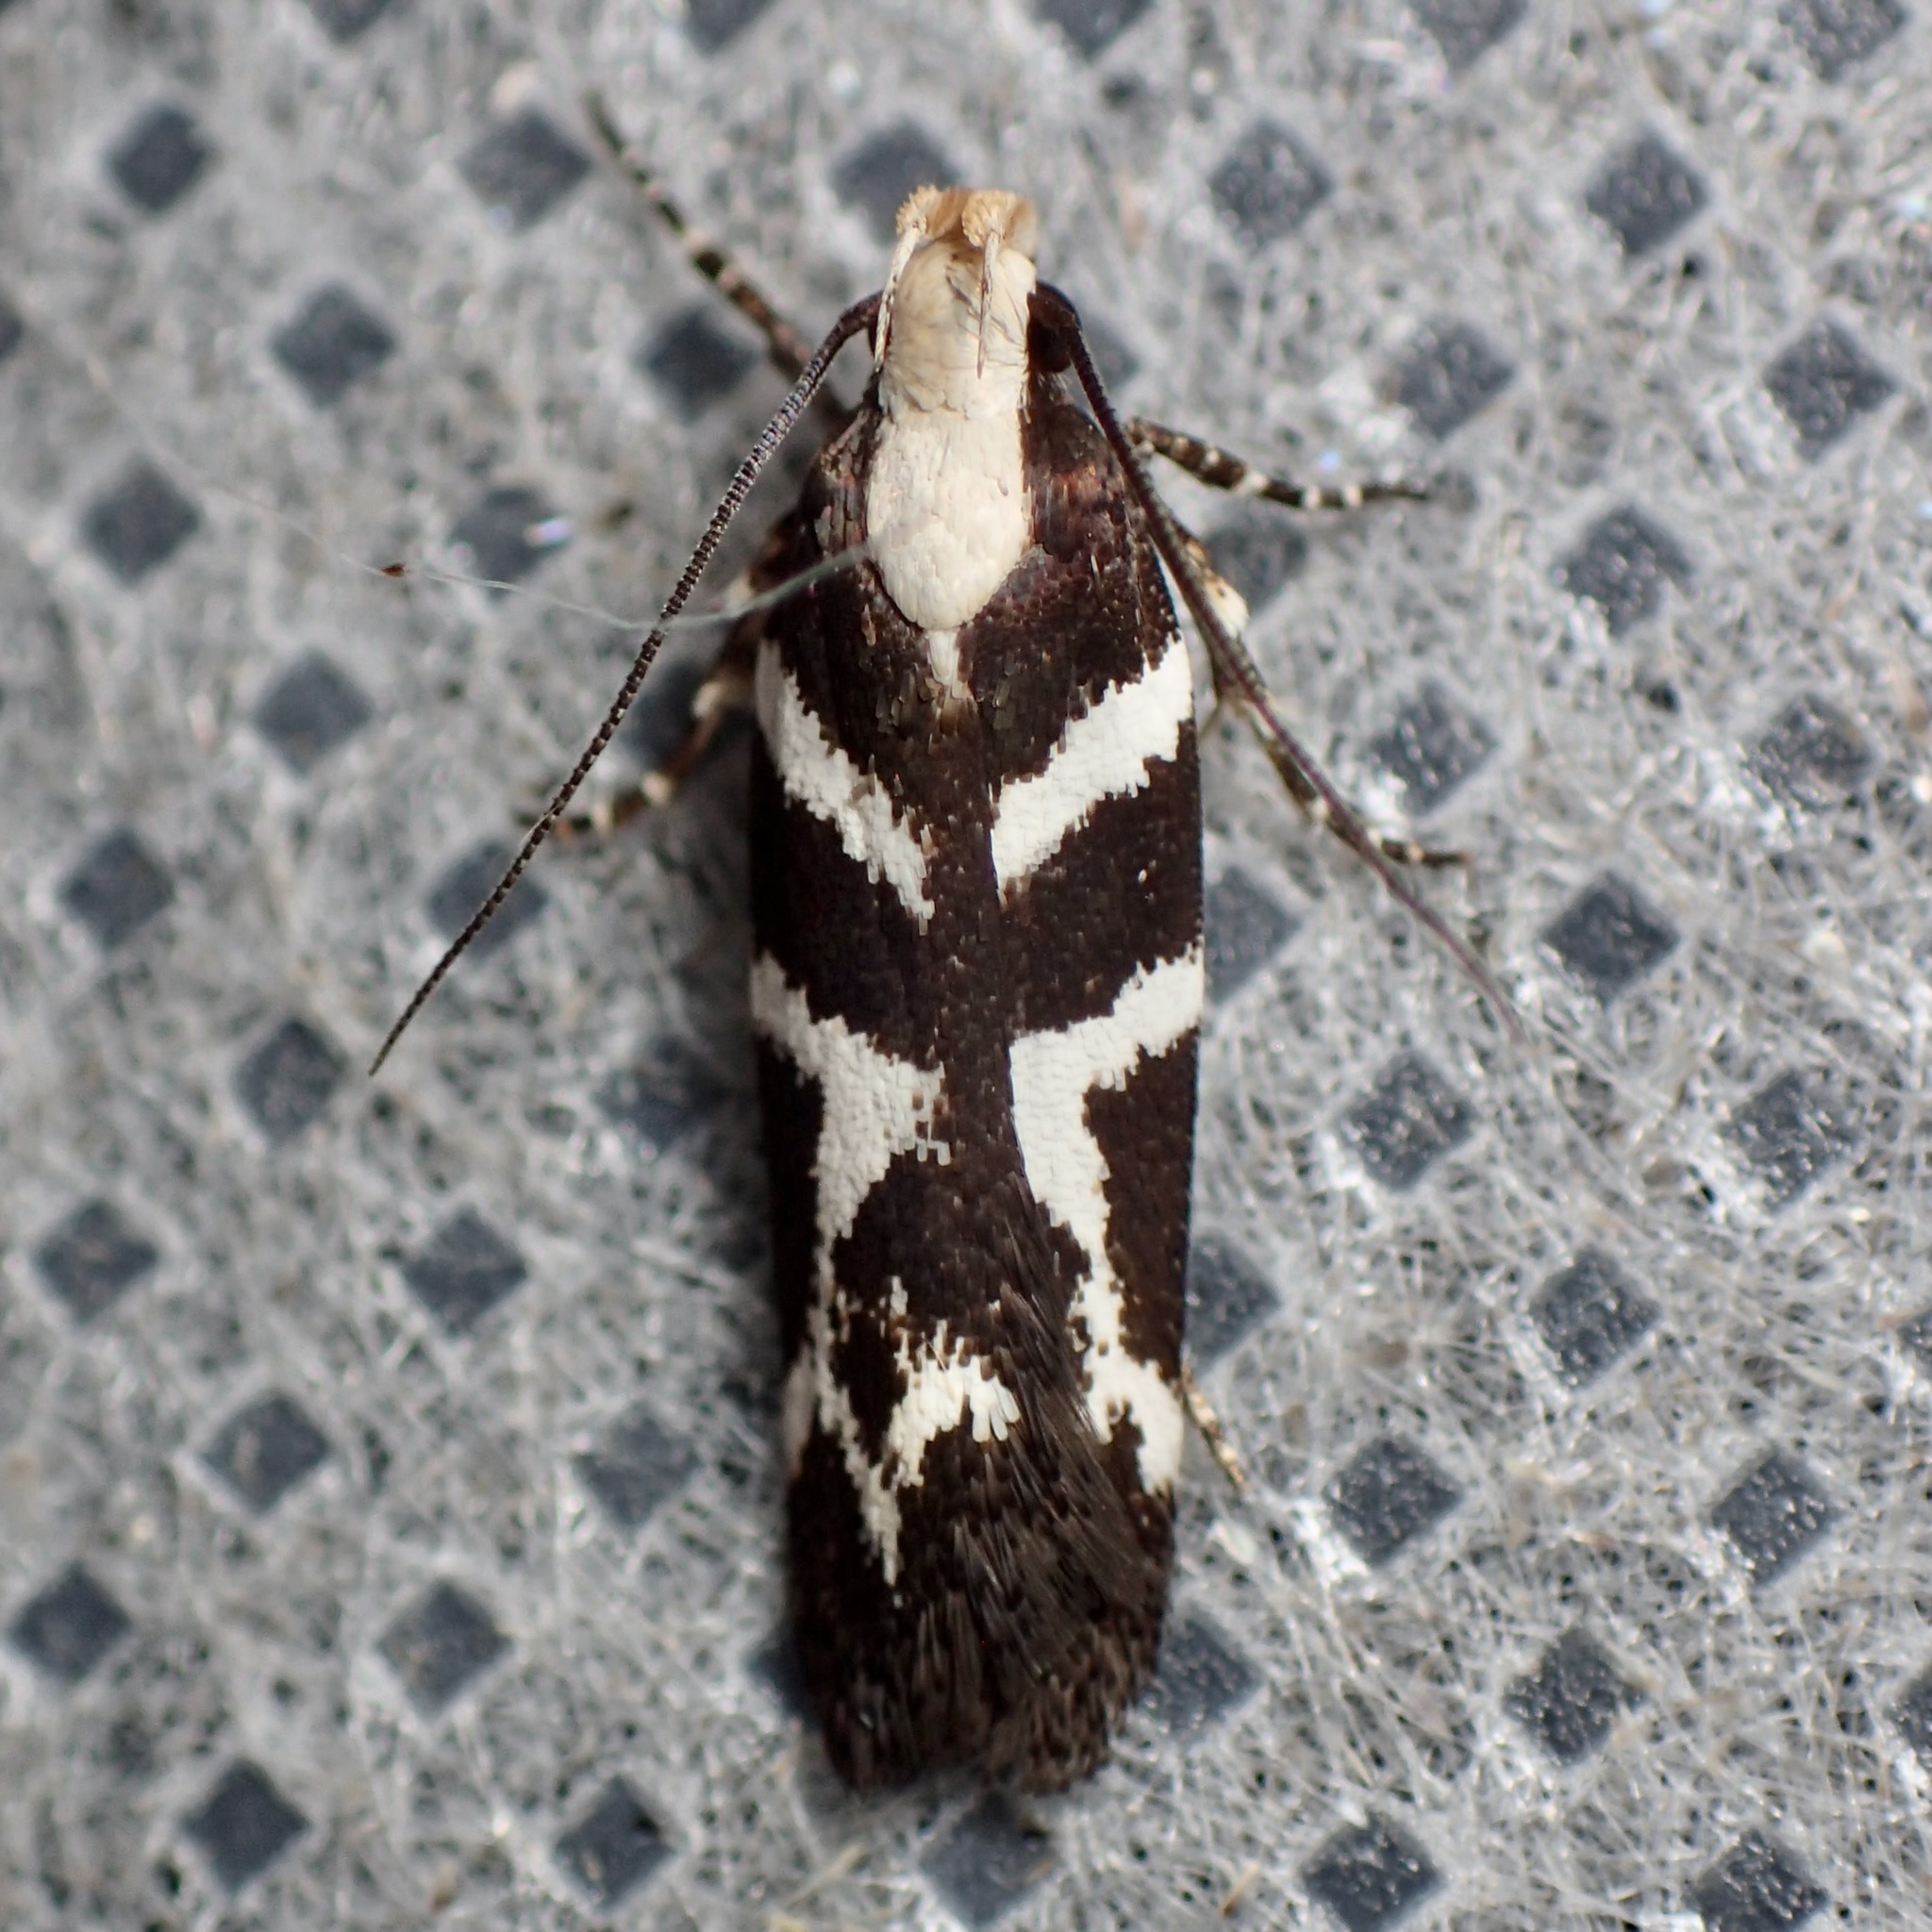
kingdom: Animalia
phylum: Arthropoda
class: Insecta
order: Lepidoptera
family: Gelechiidae
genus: Filatima
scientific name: Filatima albilorella
